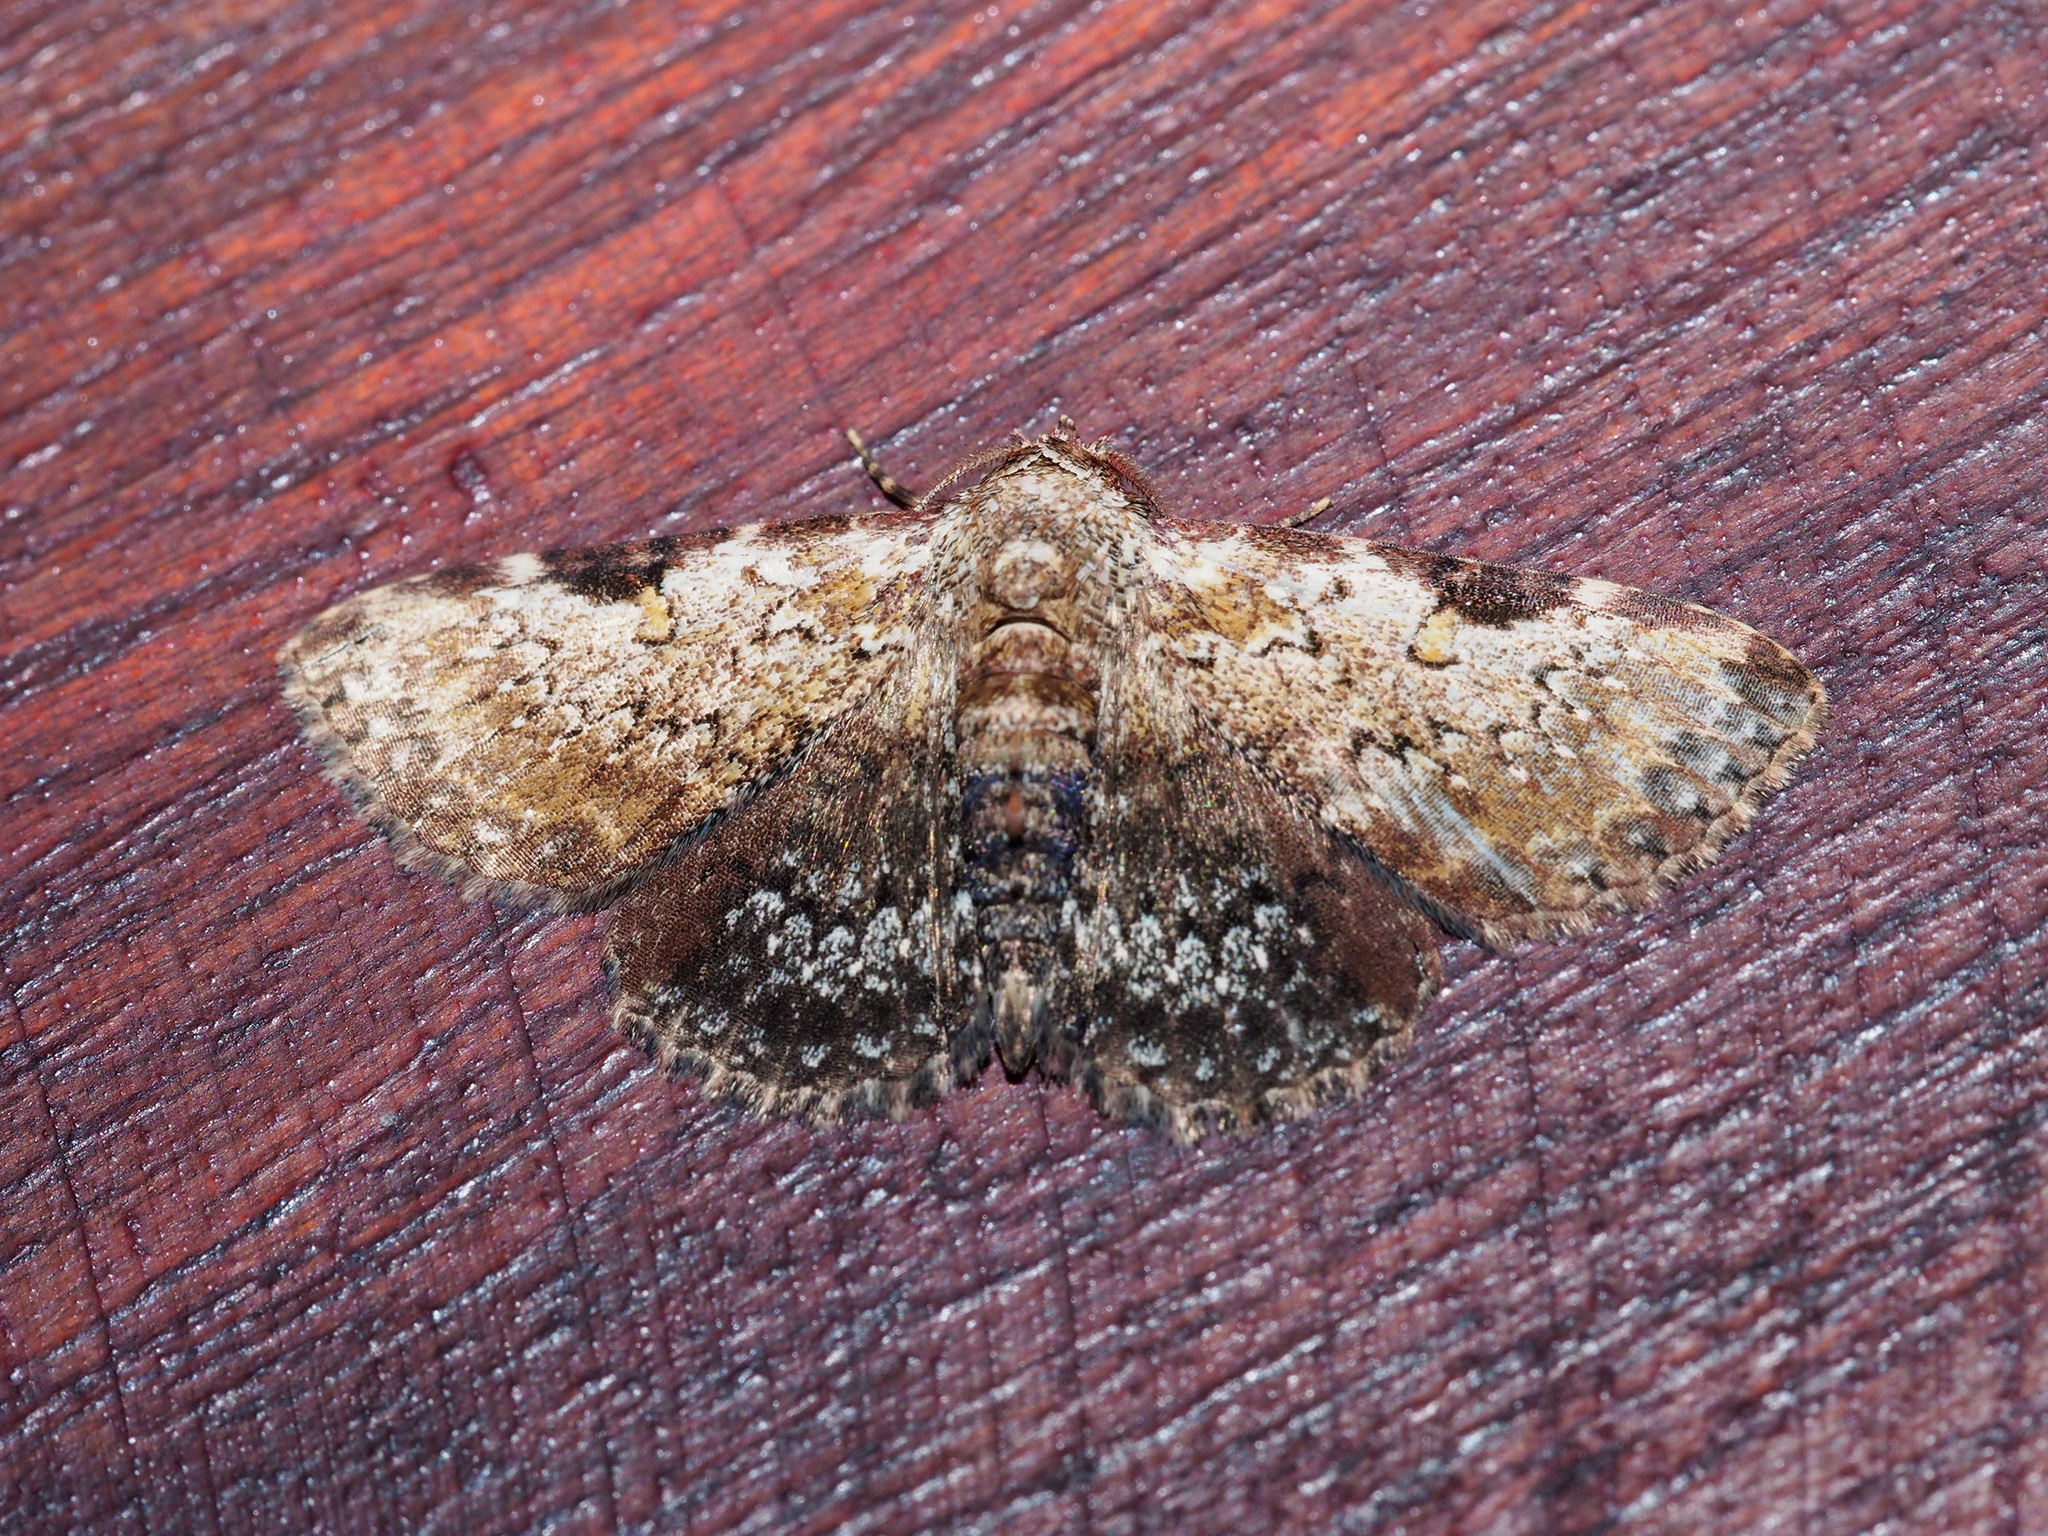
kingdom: Animalia
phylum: Arthropoda
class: Insecta
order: Lepidoptera
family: Erebidae
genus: Caduca
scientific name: Caduca phronimus
